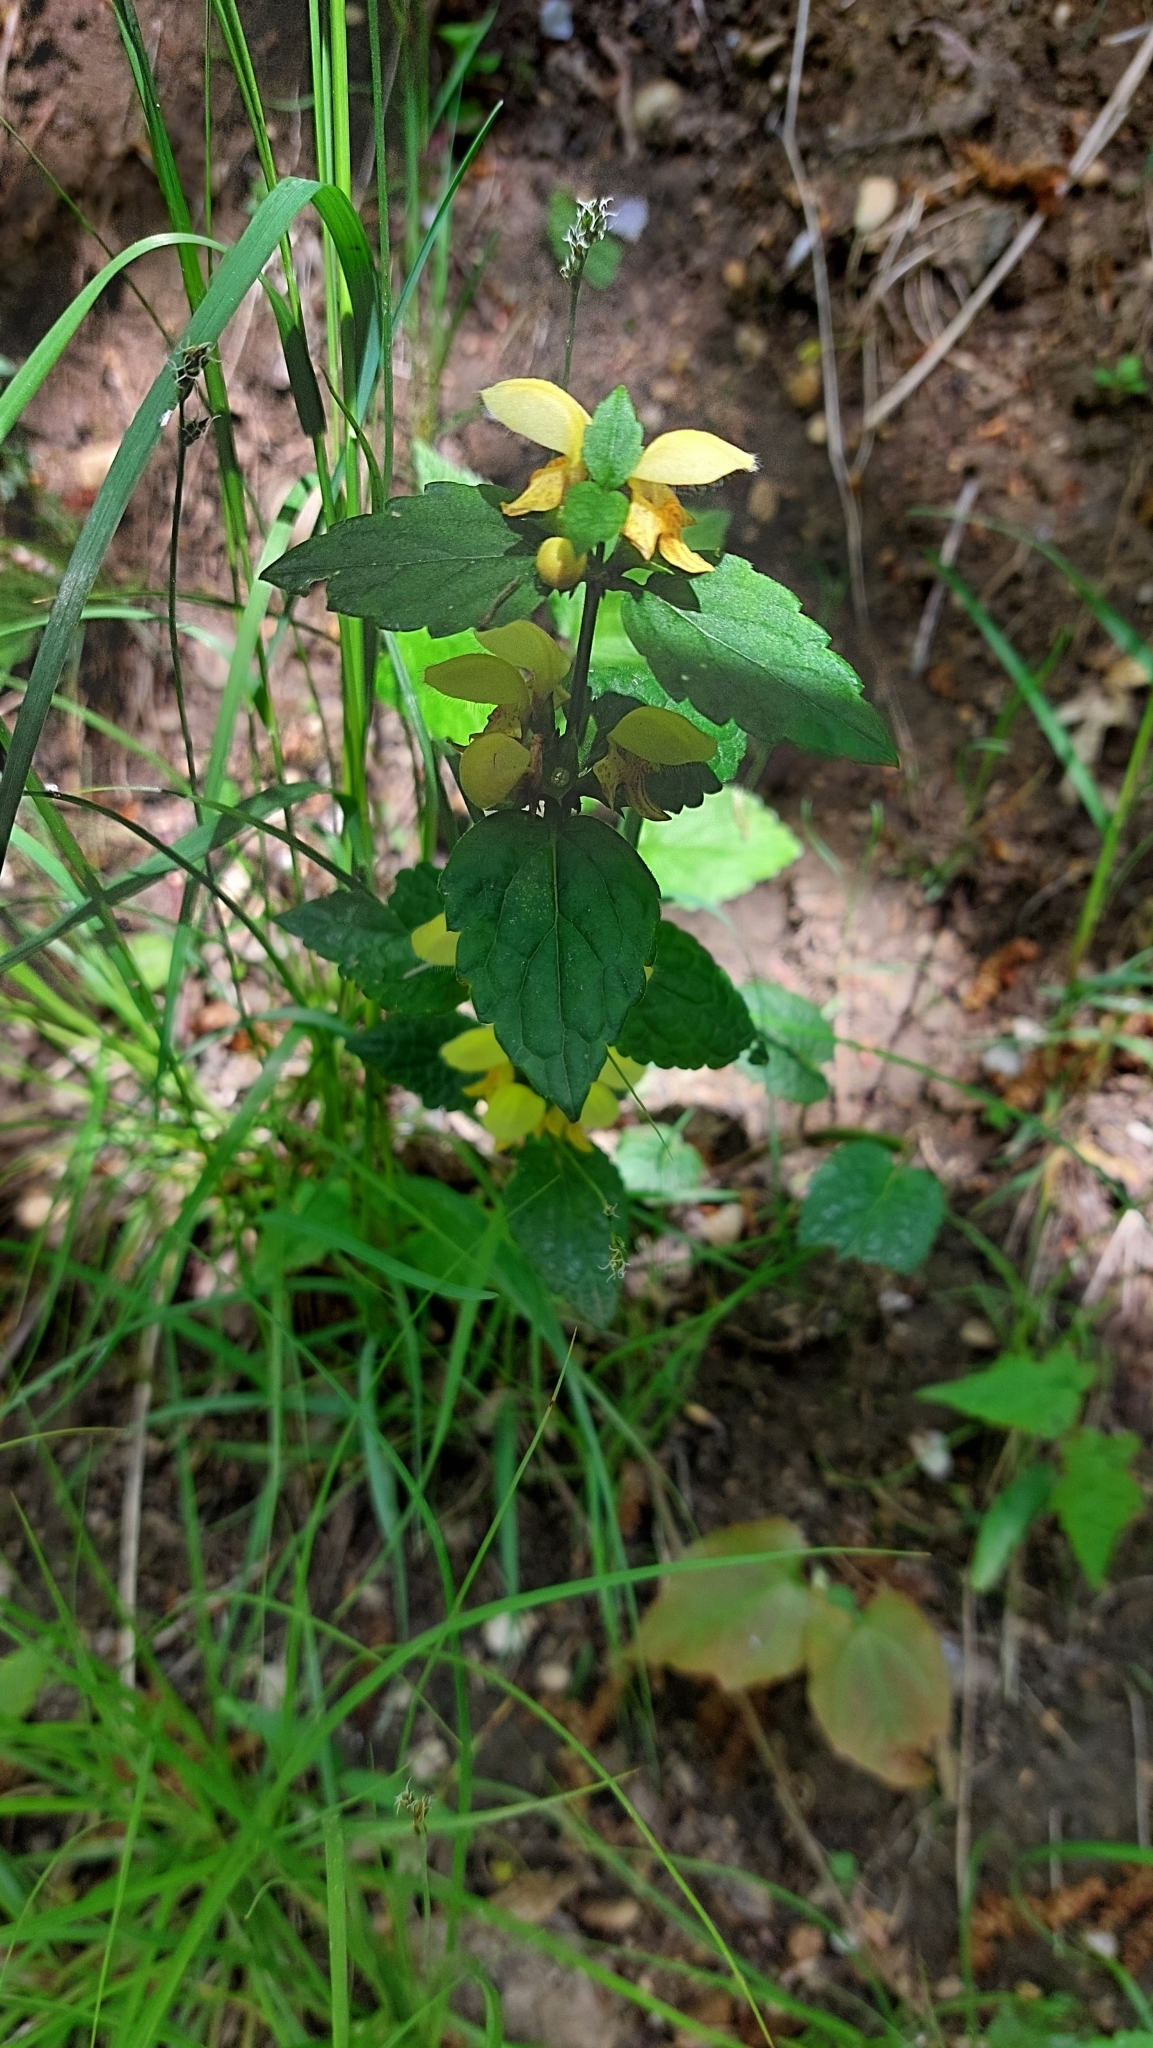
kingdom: Plantae
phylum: Tracheophyta
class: Magnoliopsida
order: Lamiales
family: Lamiaceae
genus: Lamium
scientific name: Lamium galeobdolon
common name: Yellow archangel
